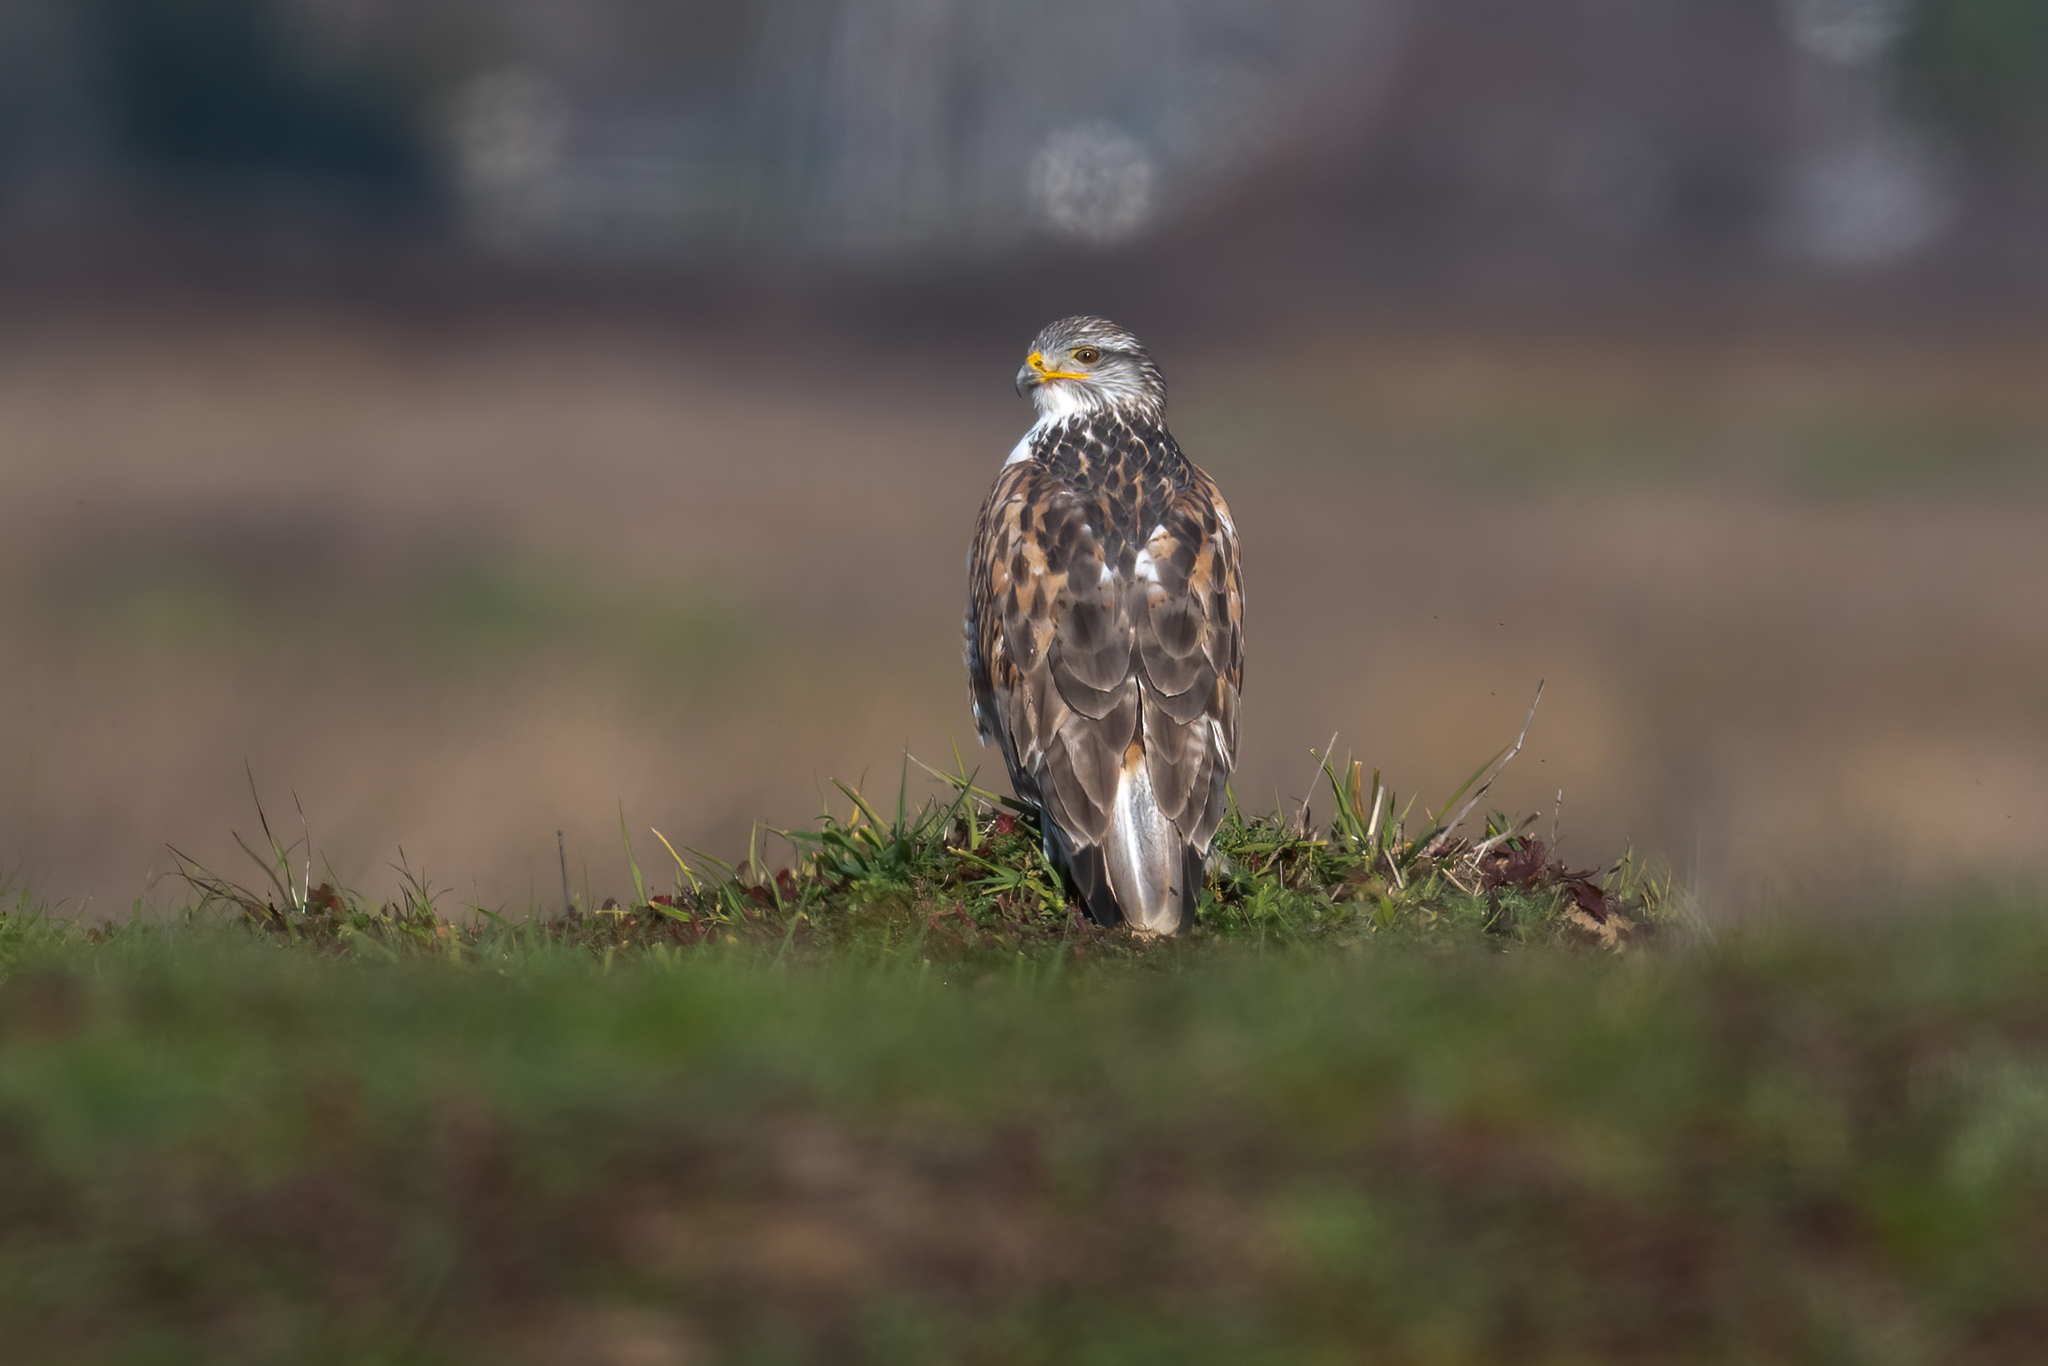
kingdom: Animalia
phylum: Chordata
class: Aves
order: Accipitriformes
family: Accipitridae
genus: Buteo
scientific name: Buteo regalis
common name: Ferruginous hawk
